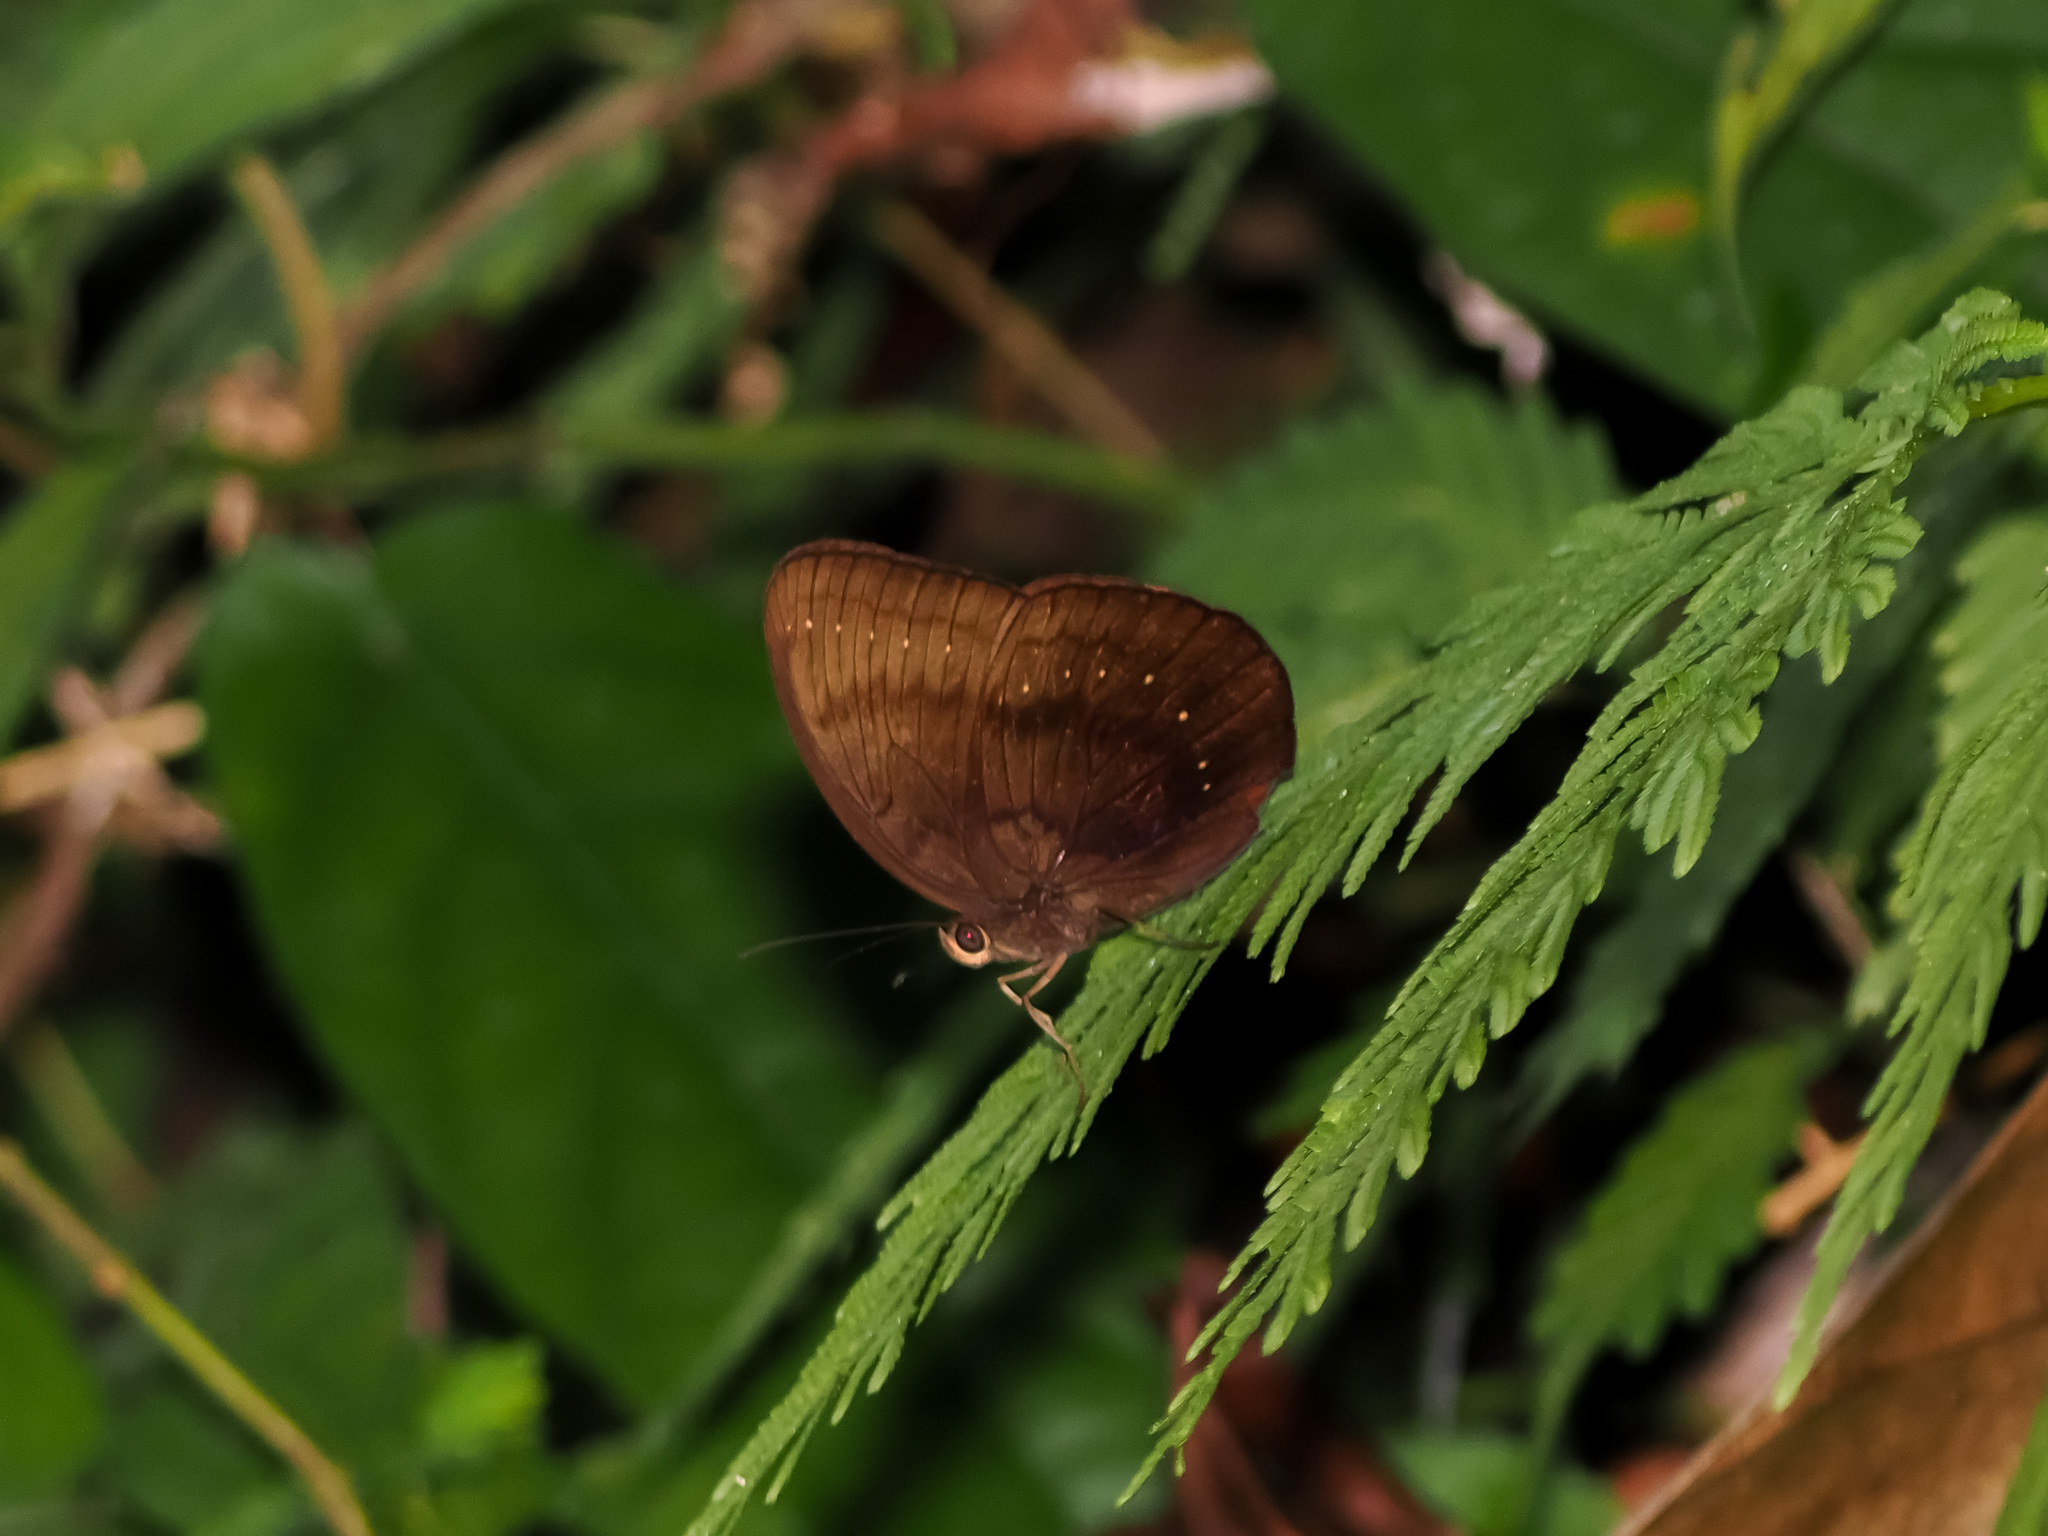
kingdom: Animalia
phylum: Arthropoda
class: Insecta
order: Lepidoptera
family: Nymphalidae
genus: Faunis
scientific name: Faunis kirata
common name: Broad striped faun
